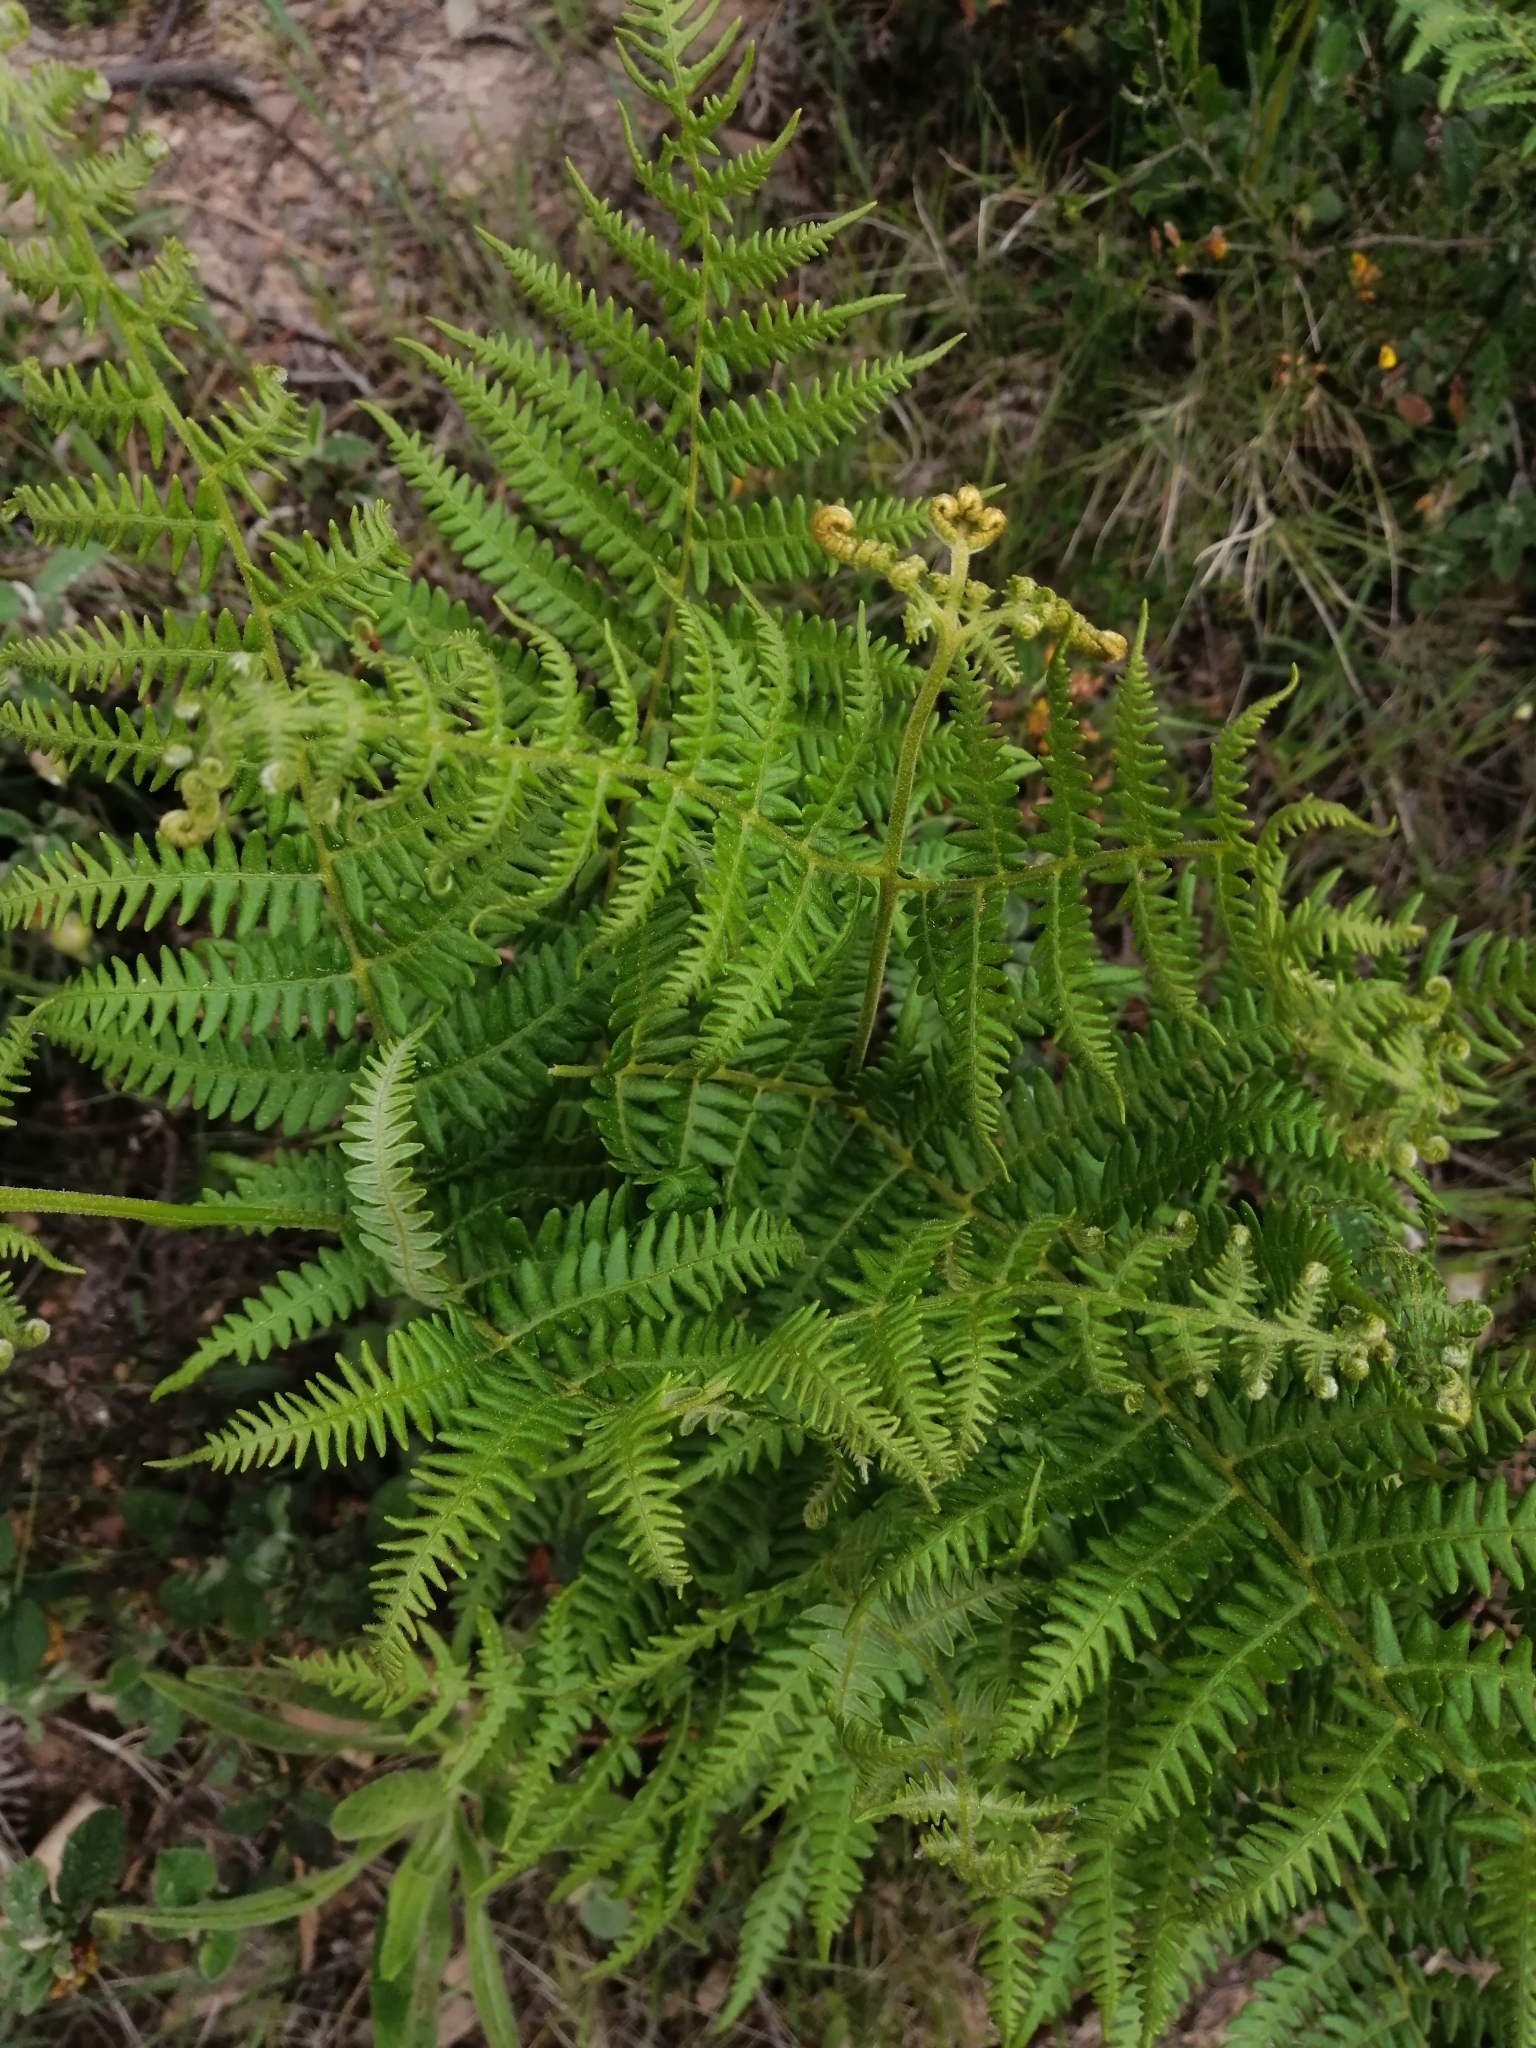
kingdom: Plantae
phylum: Tracheophyta
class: Polypodiopsida
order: Polypodiales
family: Dennstaedtiaceae
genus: Pteridium
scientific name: Pteridium aquilinum
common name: Bracken
